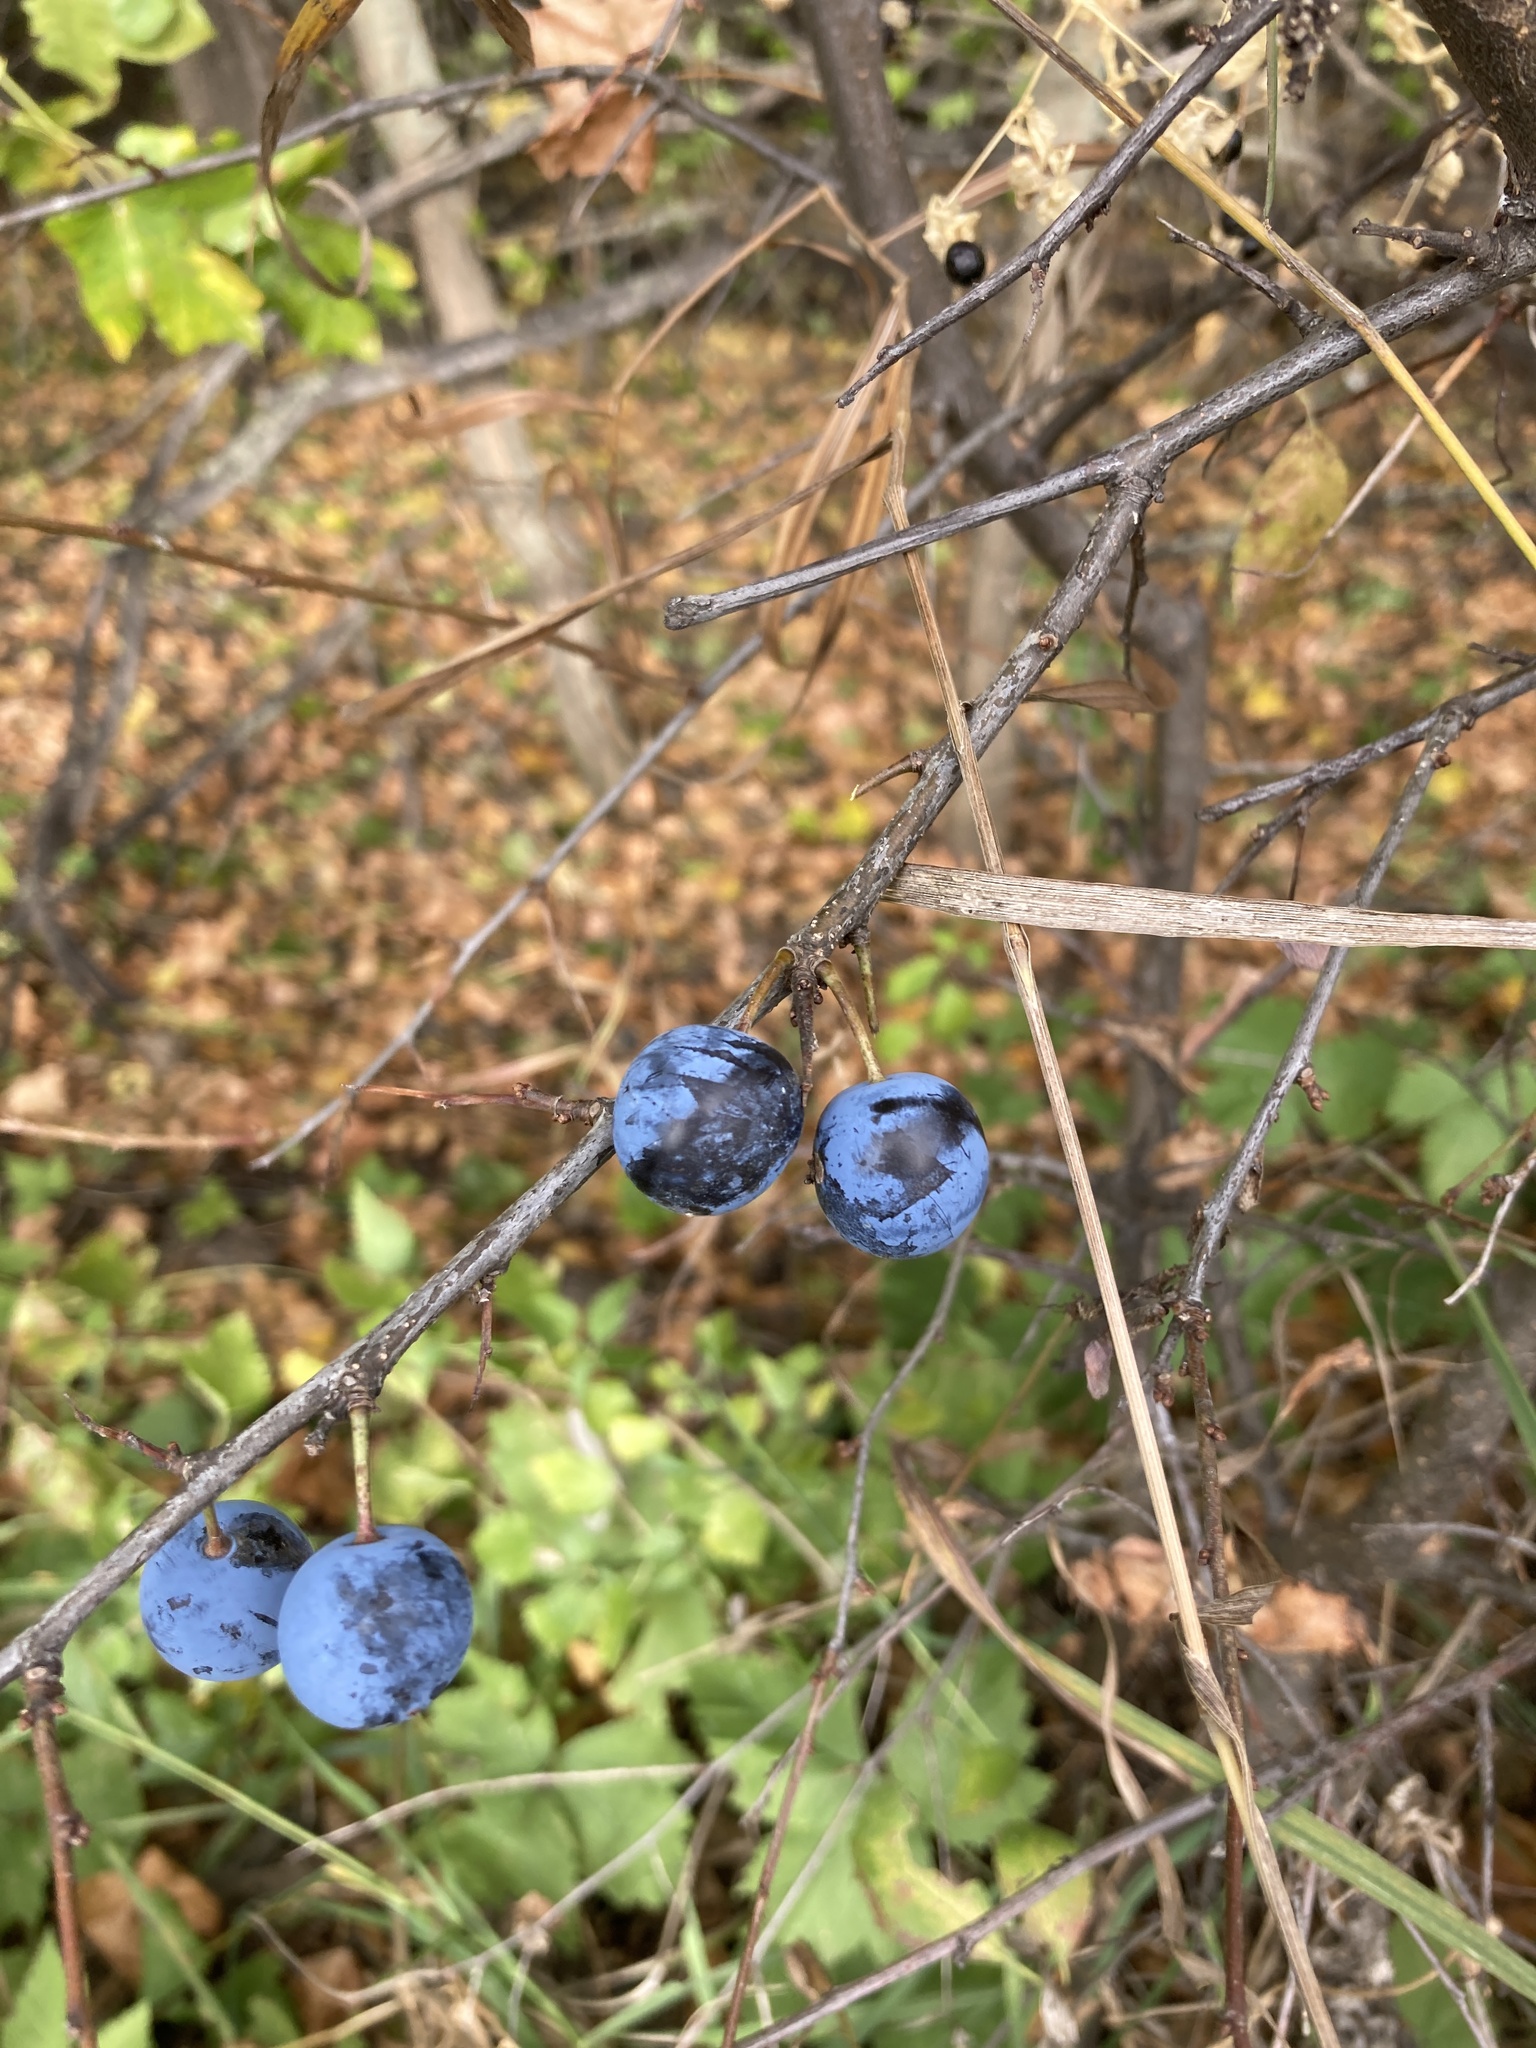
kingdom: Plantae
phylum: Tracheophyta
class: Magnoliopsida
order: Rosales
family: Rosaceae
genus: Prunus
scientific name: Prunus spinosa
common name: Blackthorn
